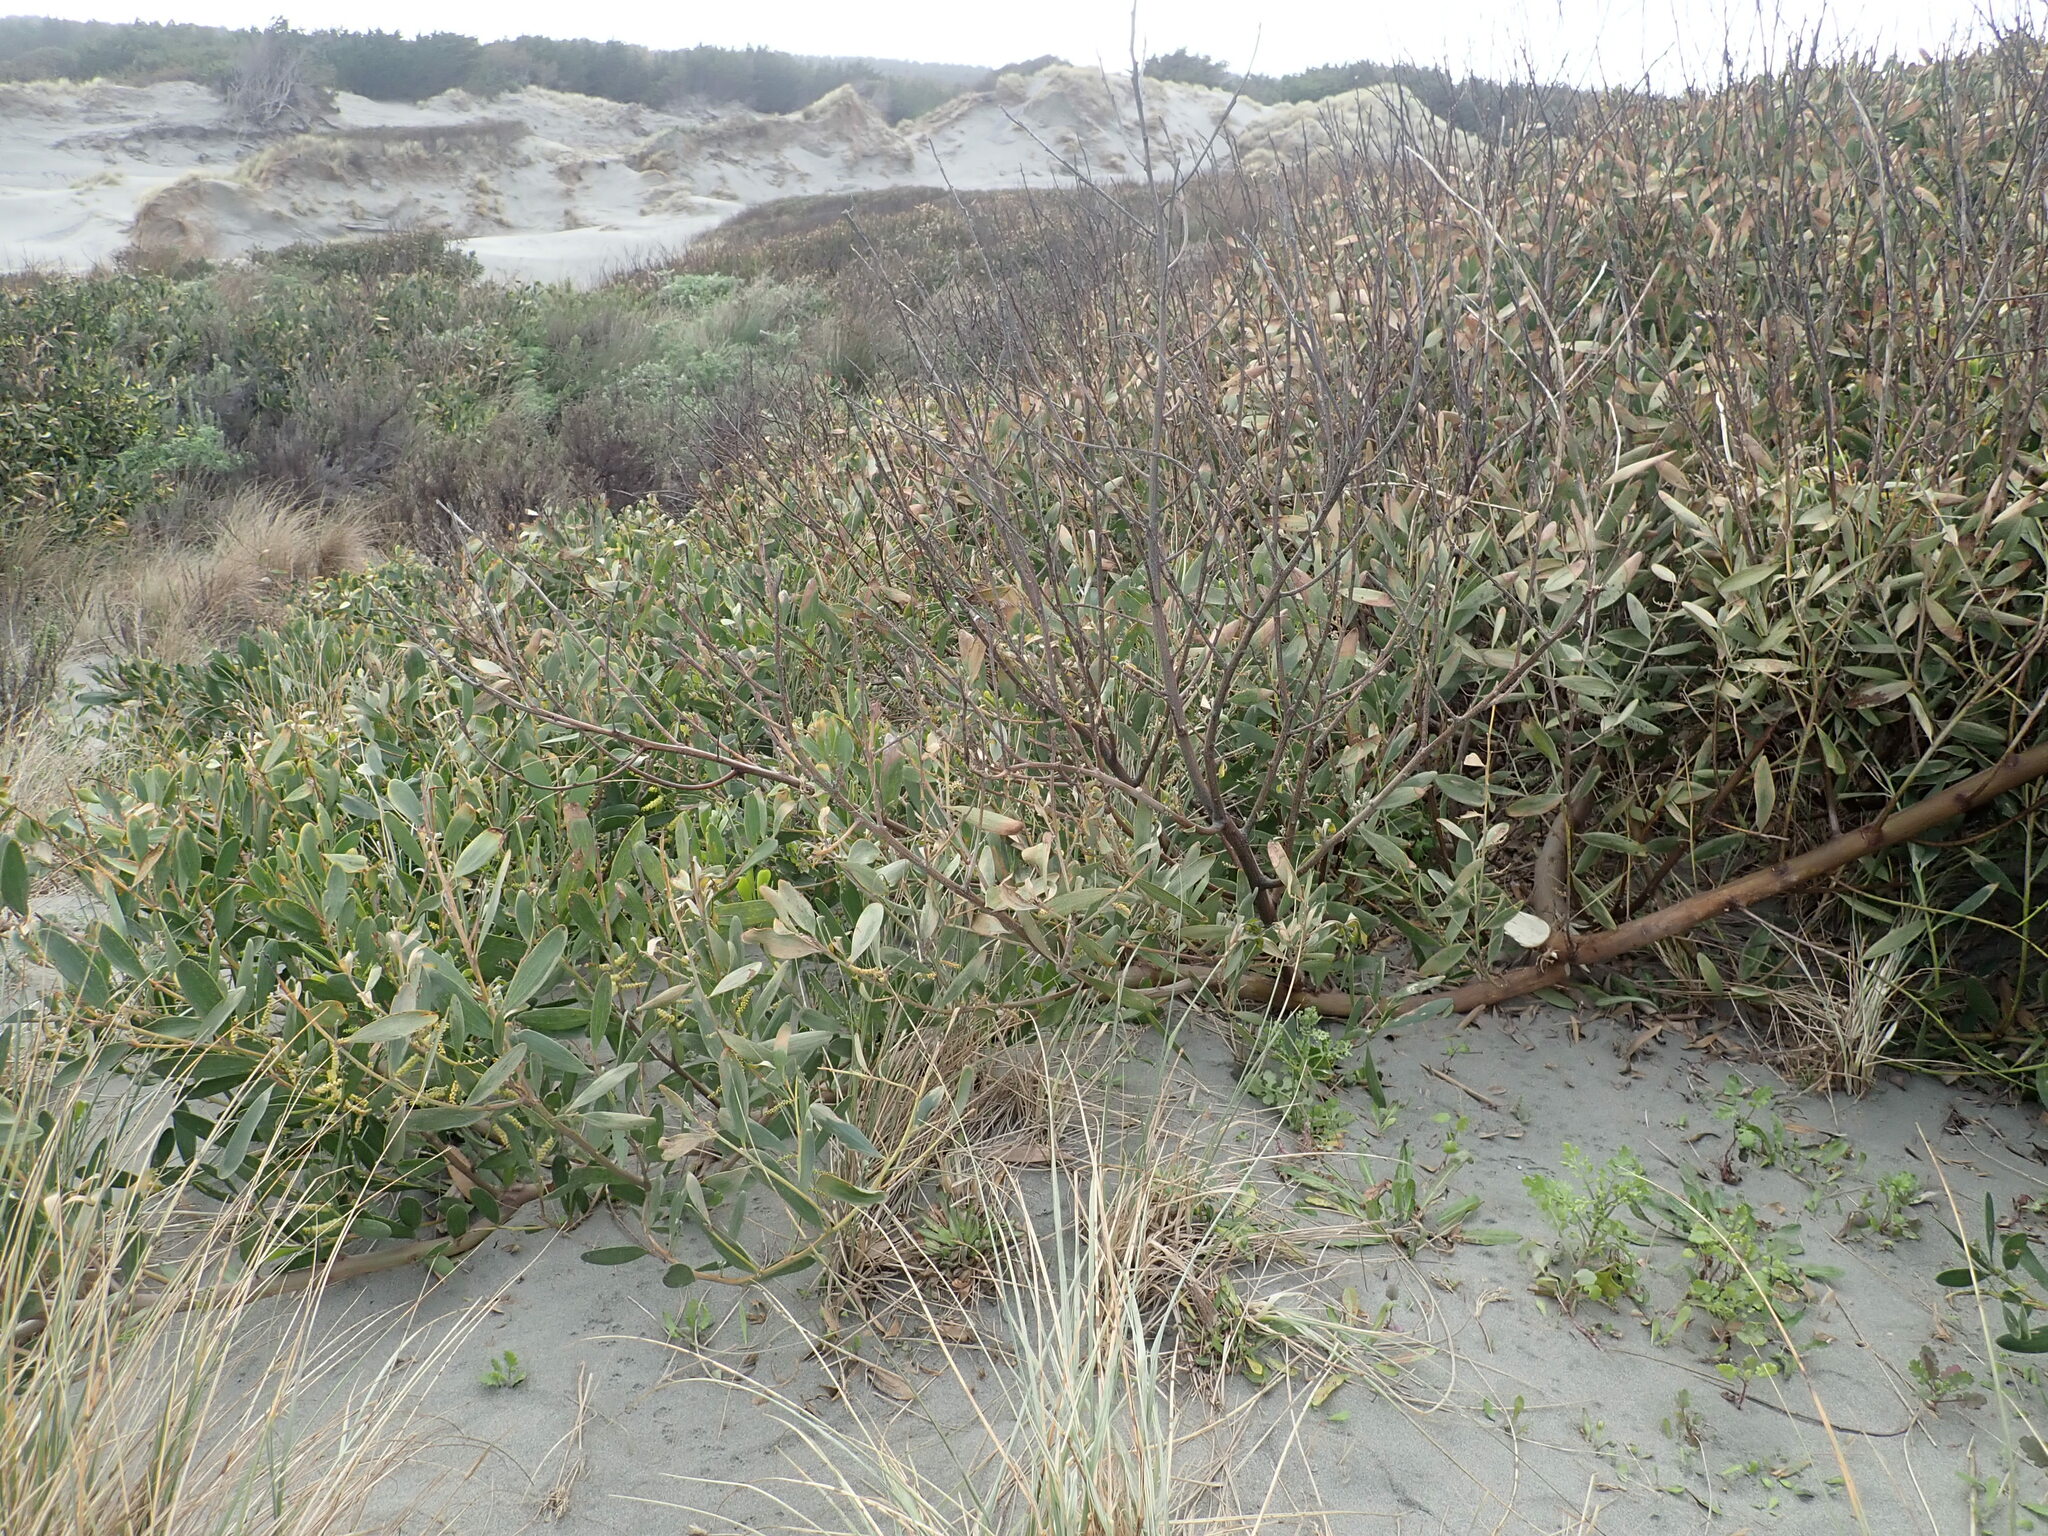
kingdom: Plantae
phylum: Tracheophyta
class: Magnoliopsida
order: Fabales
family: Fabaceae
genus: Acacia
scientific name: Acacia longifolia
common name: Sydney golden wattle
